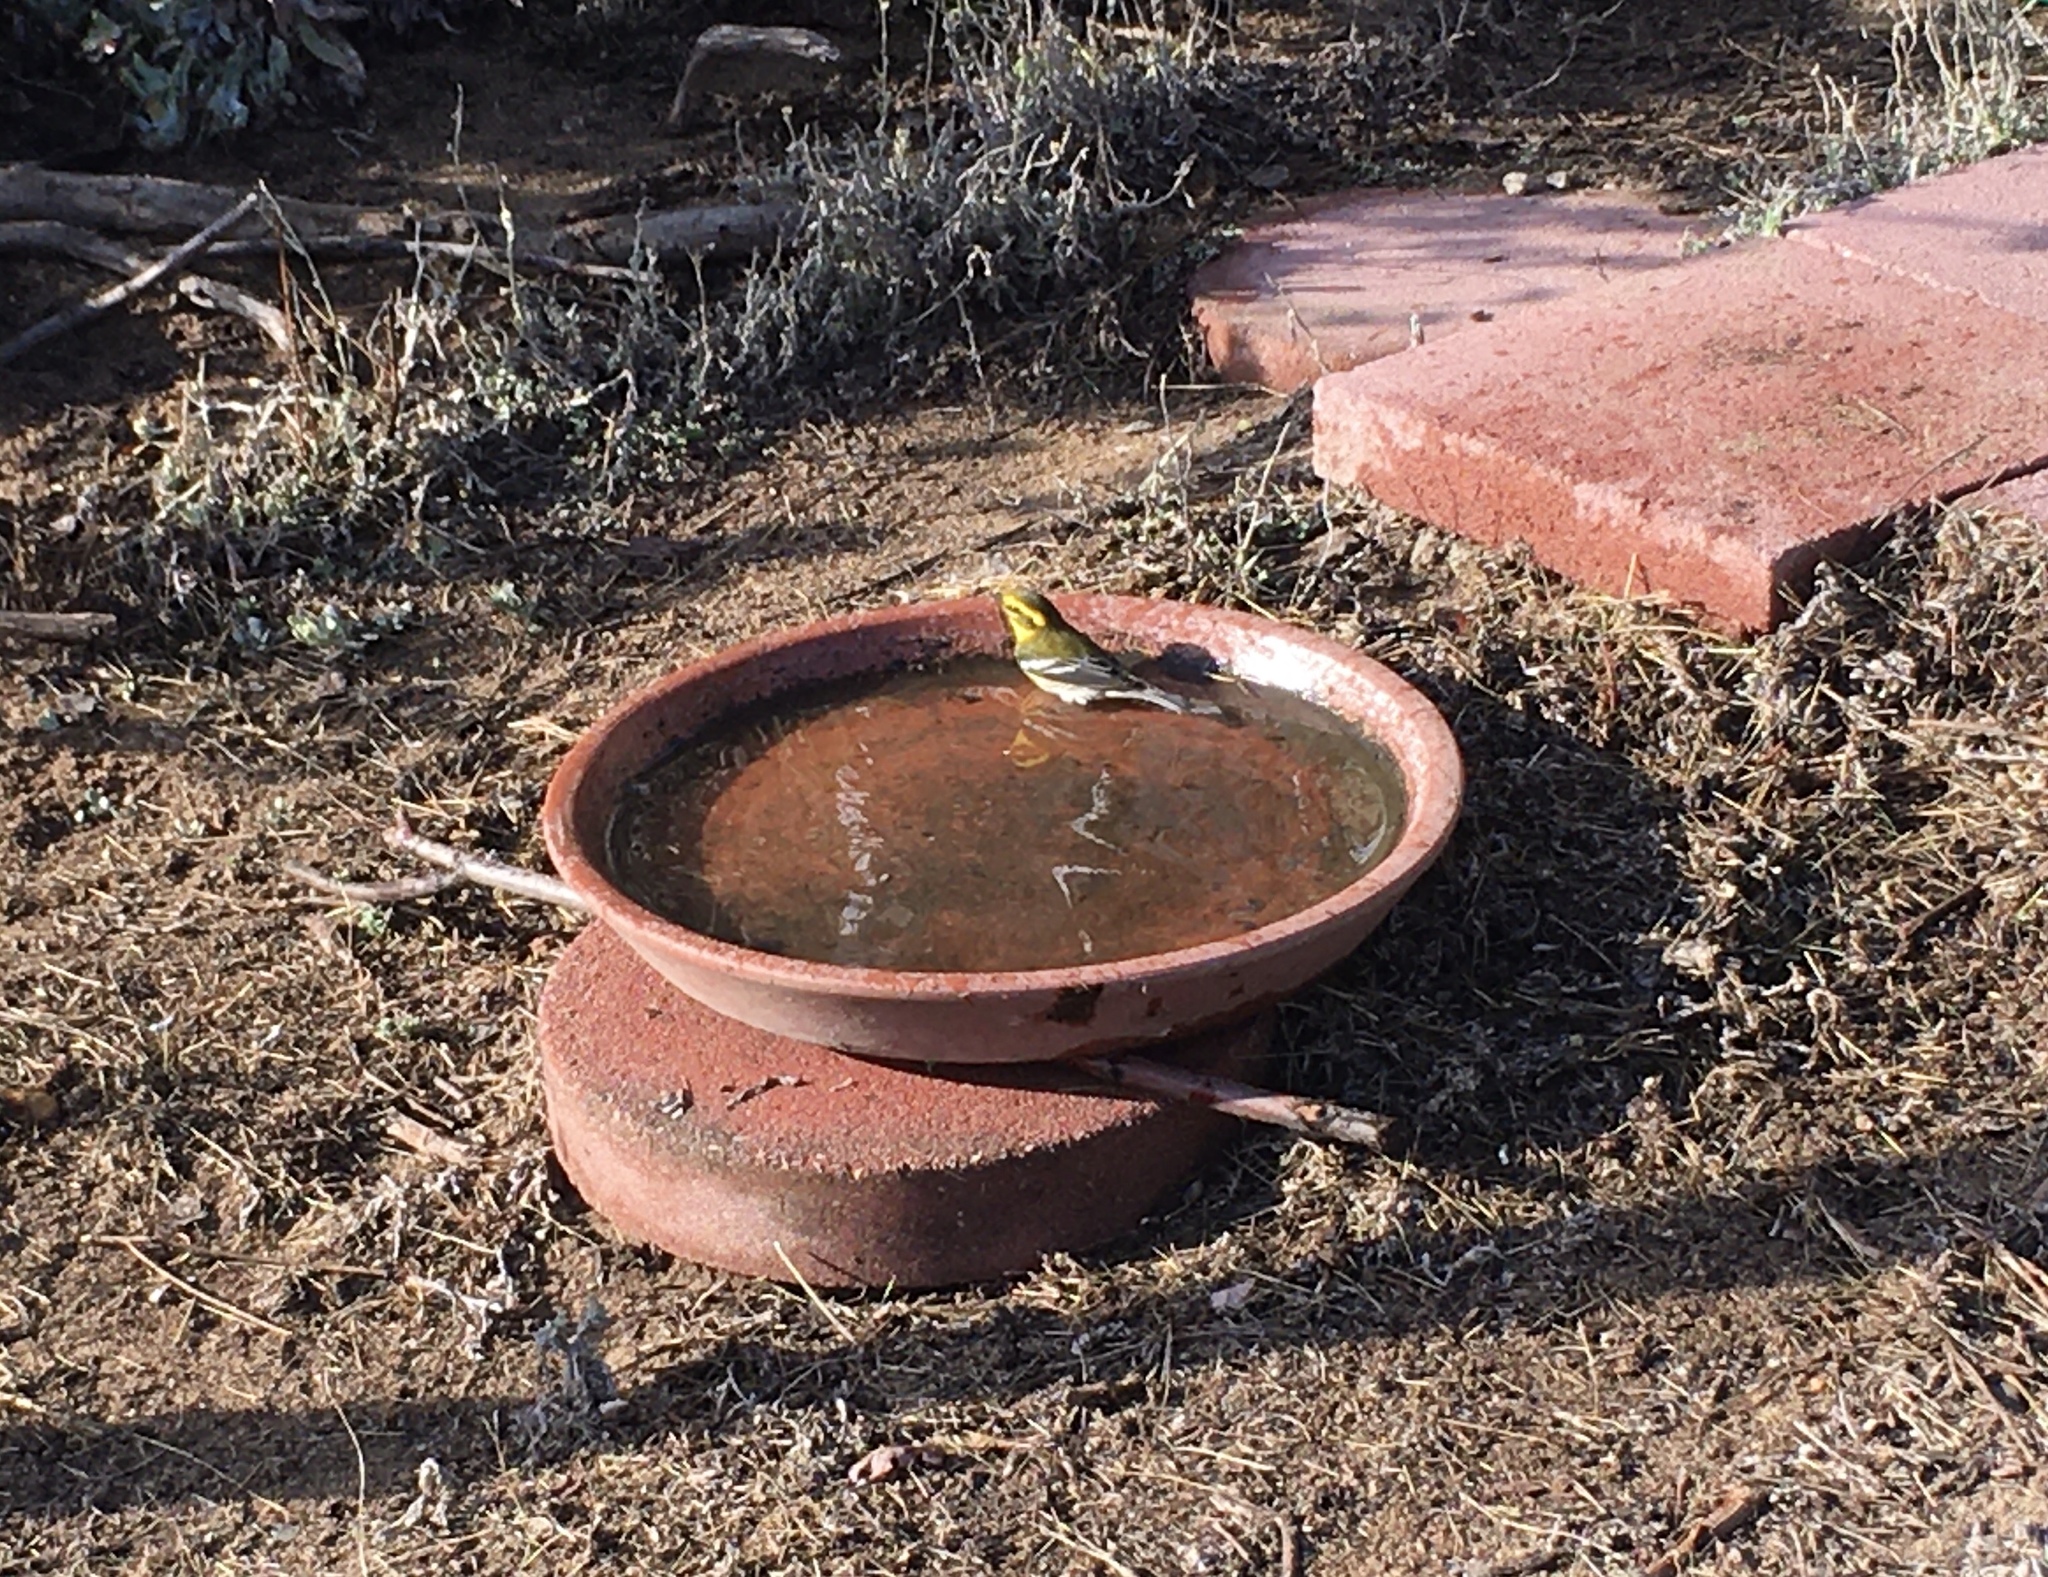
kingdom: Animalia
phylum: Chordata
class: Aves
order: Passeriformes
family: Parulidae
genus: Setophaga
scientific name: Setophaga townsendi
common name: Townsend's warbler
